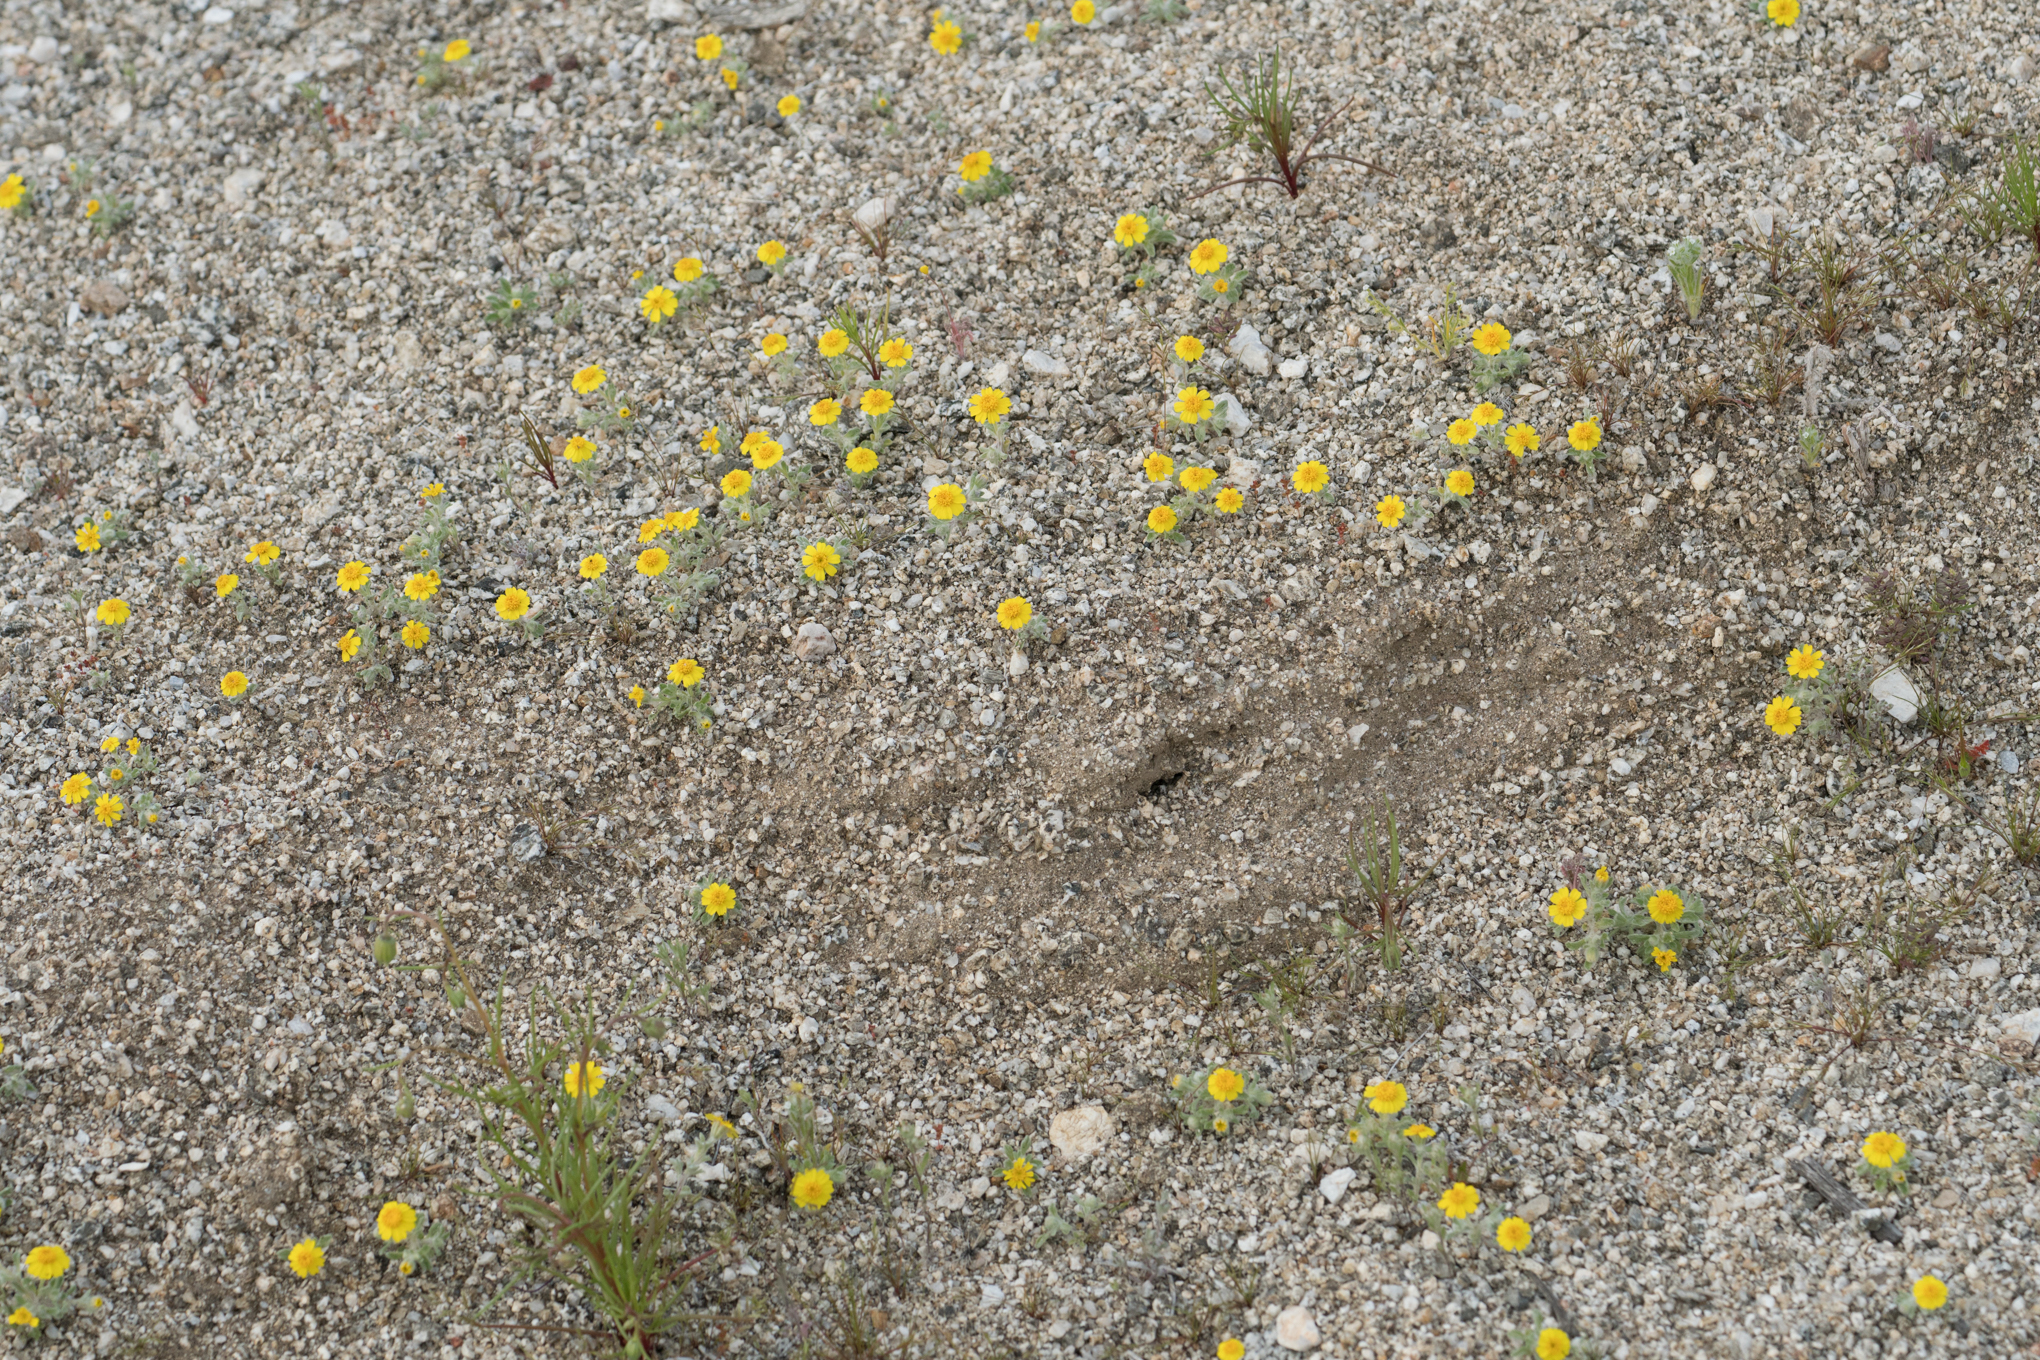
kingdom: Plantae
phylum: Tracheophyta
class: Magnoliopsida
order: Asterales
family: Asteraceae
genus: Eriophyllum
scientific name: Eriophyllum wallacei
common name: Wallace's woolly daisy
